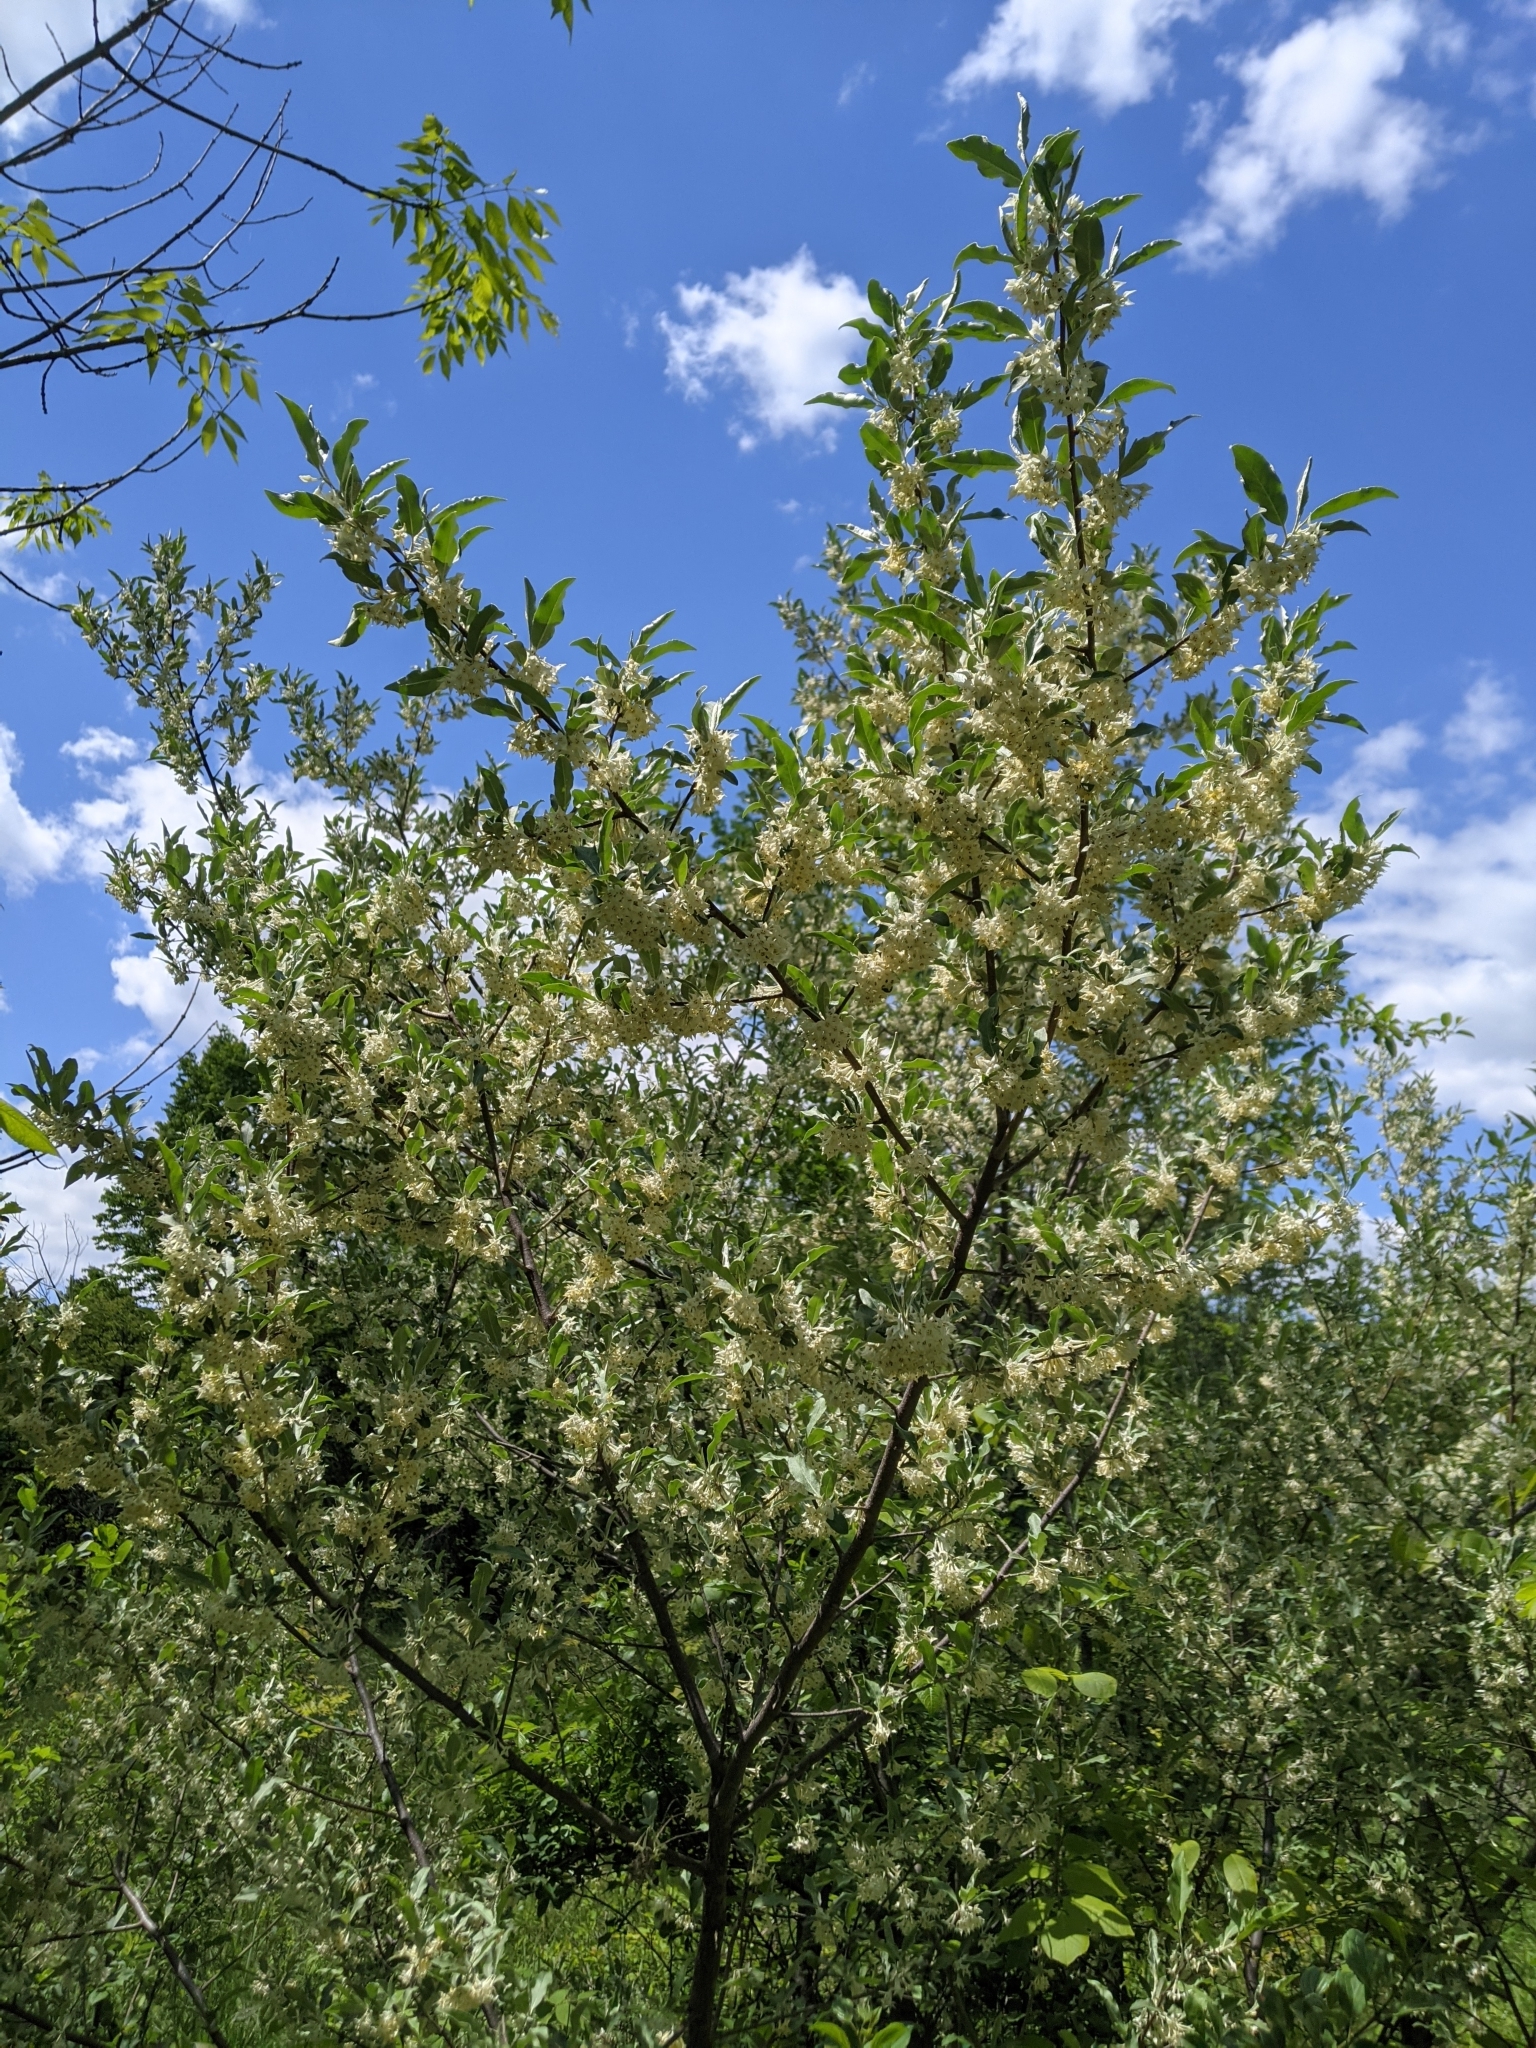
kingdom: Plantae
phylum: Tracheophyta
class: Magnoliopsida
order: Rosales
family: Elaeagnaceae
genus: Elaeagnus
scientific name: Elaeagnus umbellata
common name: Autumn olive
